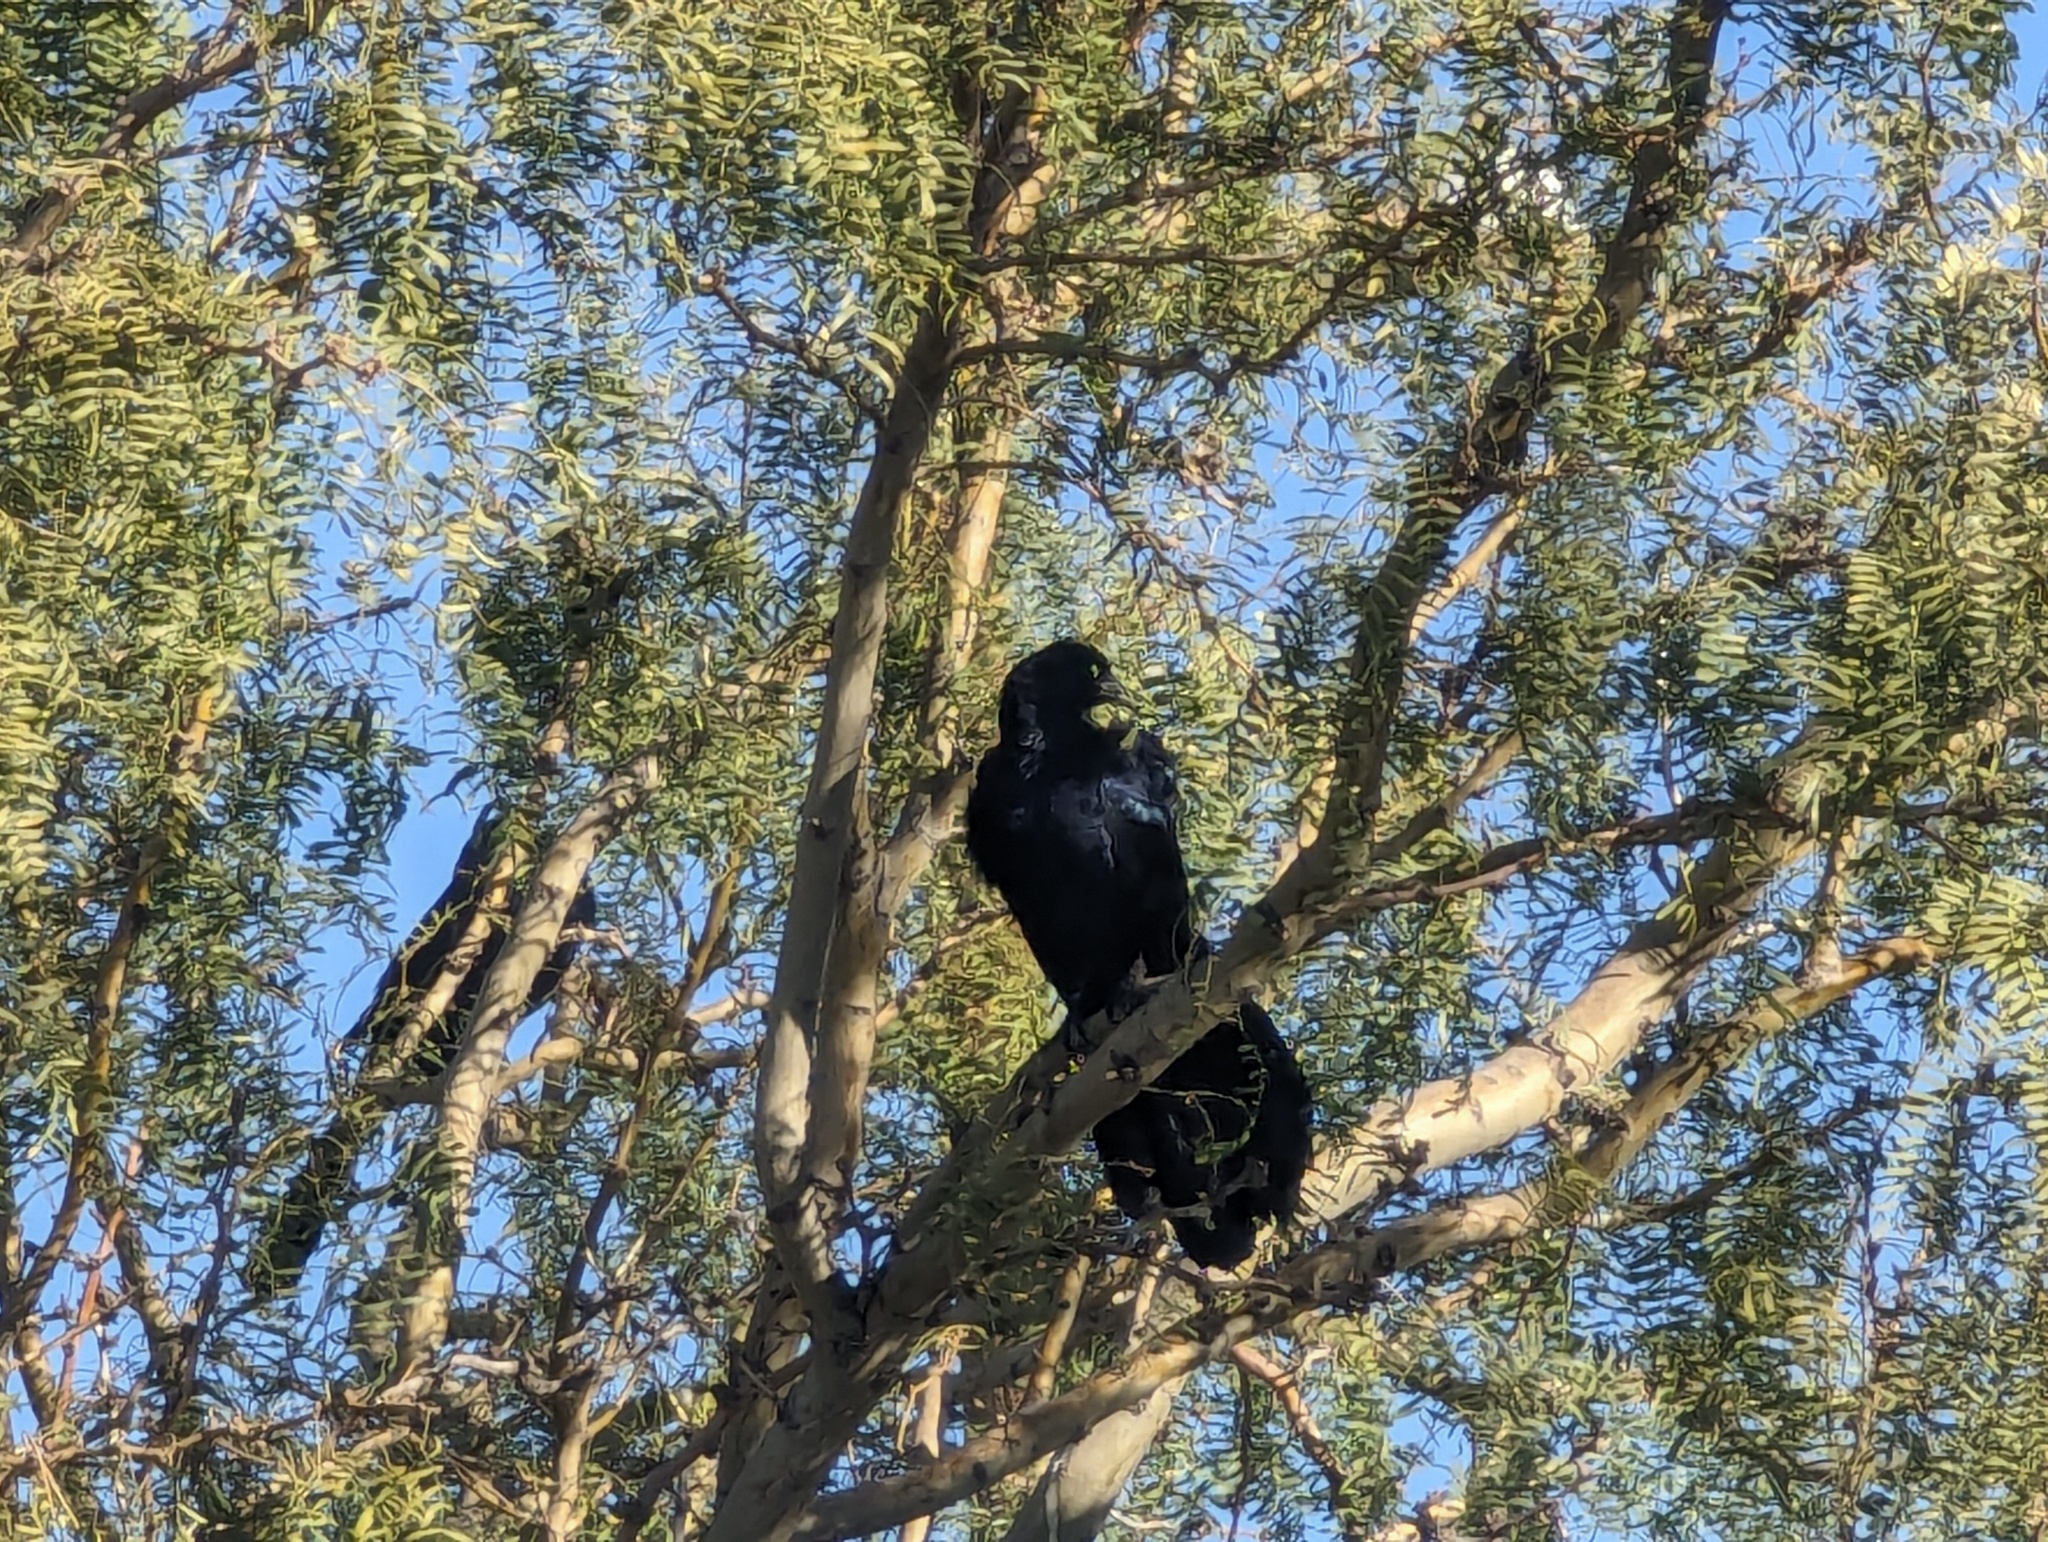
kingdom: Animalia
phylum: Chordata
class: Aves
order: Passeriformes
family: Icteridae
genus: Quiscalus
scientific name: Quiscalus mexicanus
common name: Great-tailed grackle
